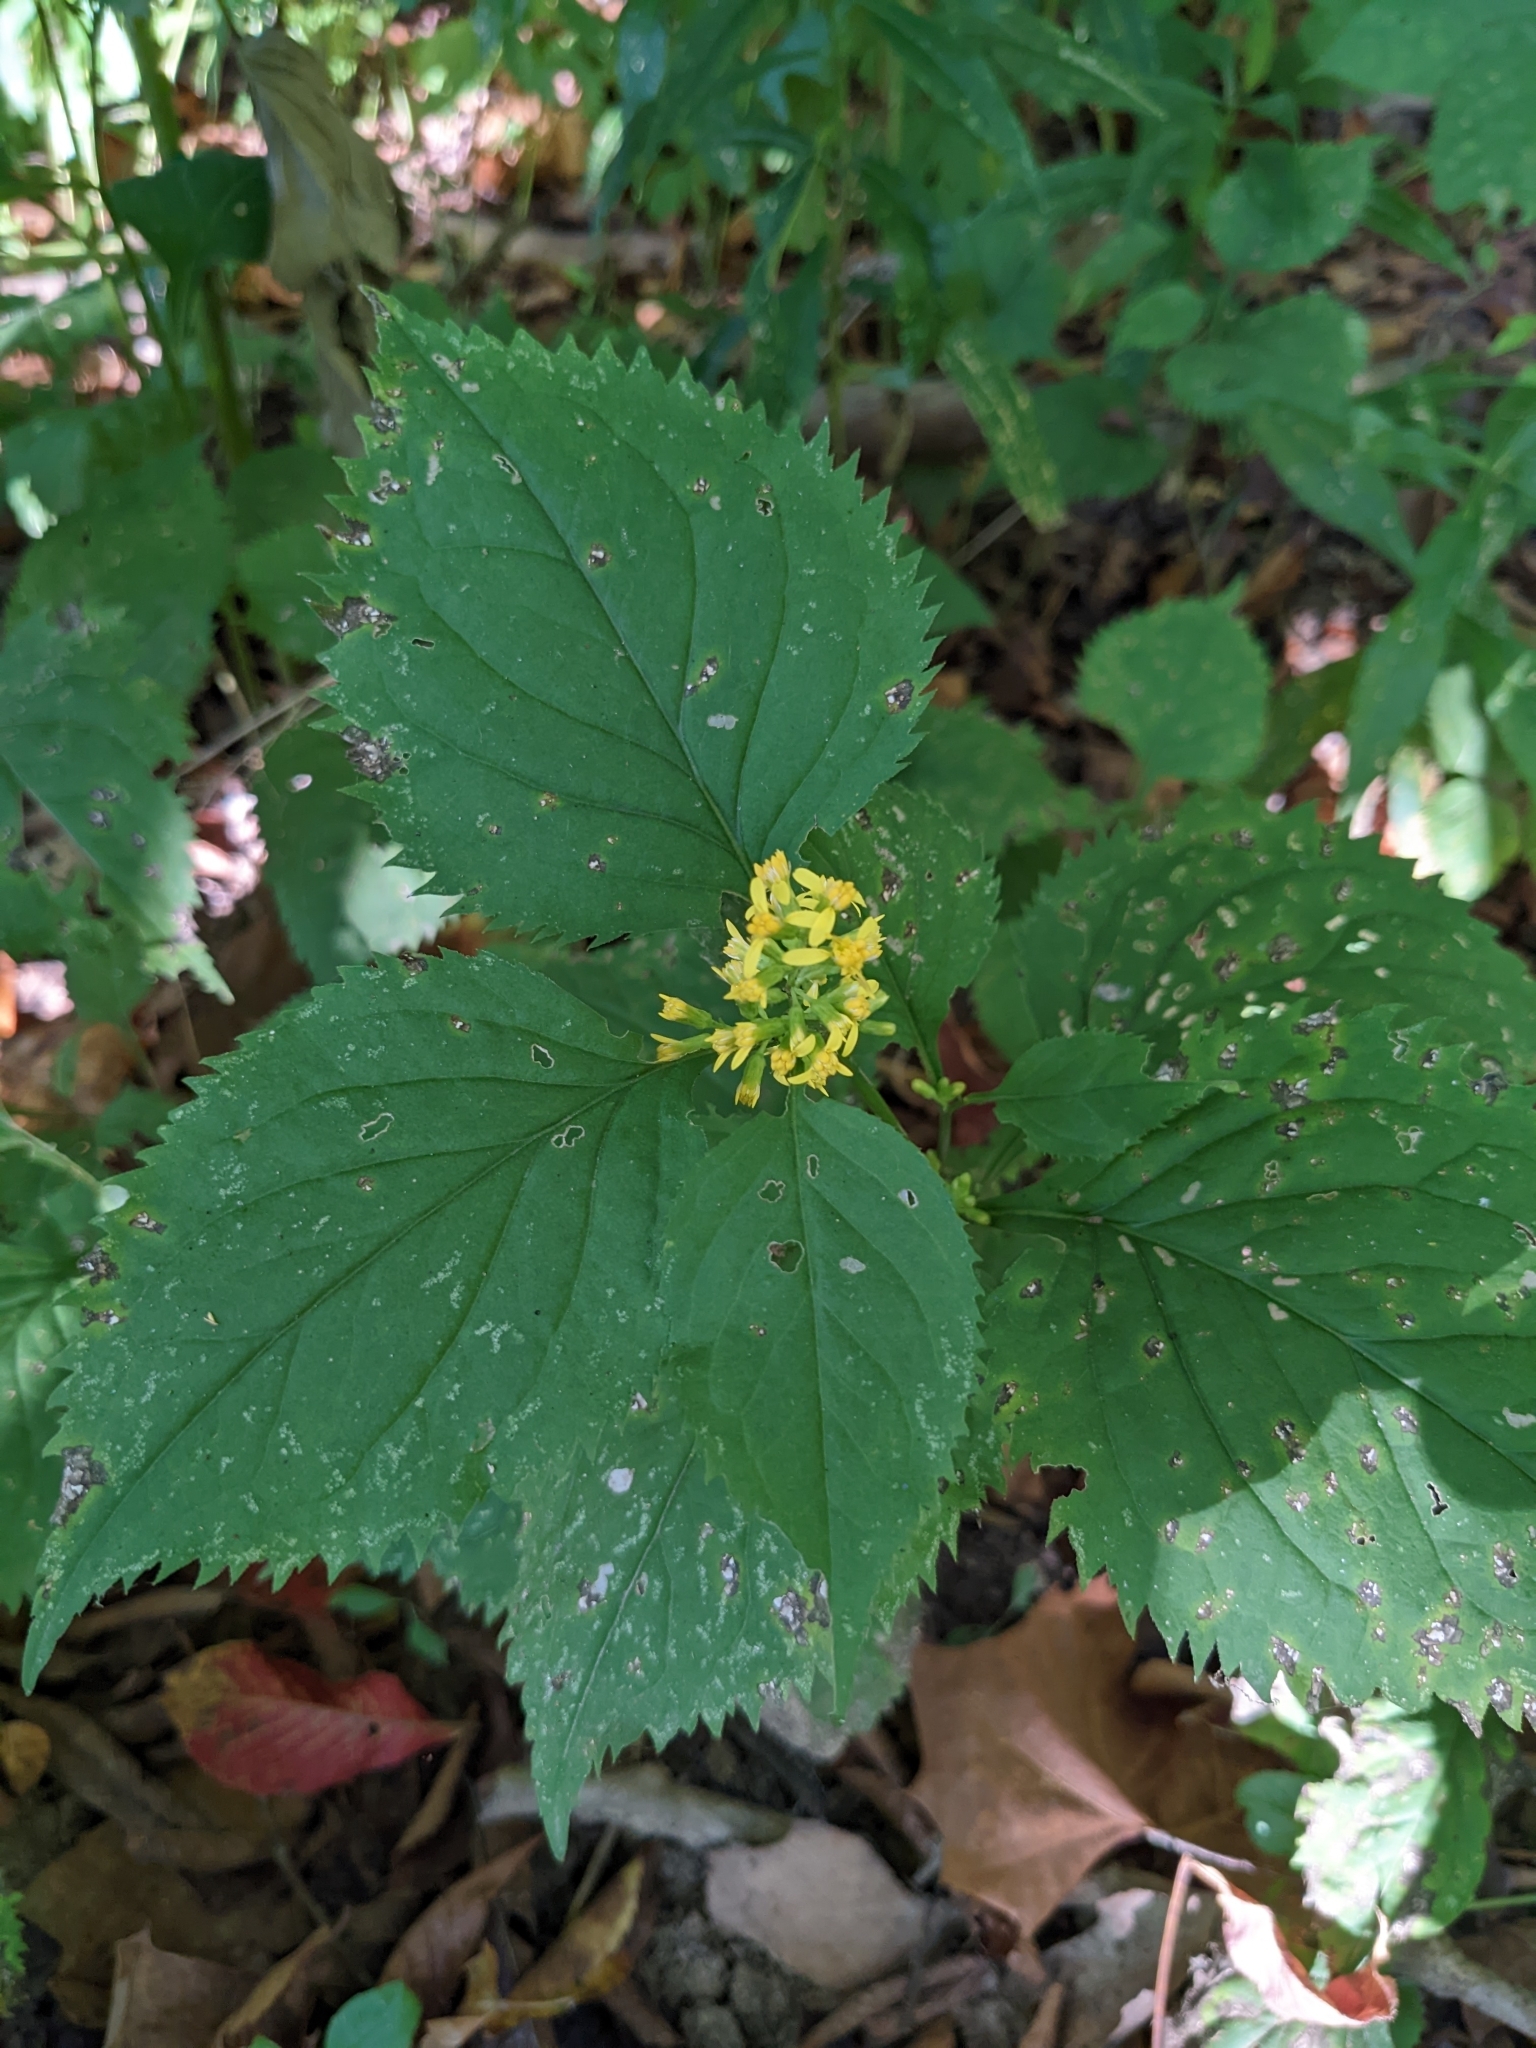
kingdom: Plantae
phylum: Tracheophyta
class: Magnoliopsida
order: Asterales
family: Asteraceae
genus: Solidago
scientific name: Solidago flexicaulis
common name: Zig-zag goldenrod
